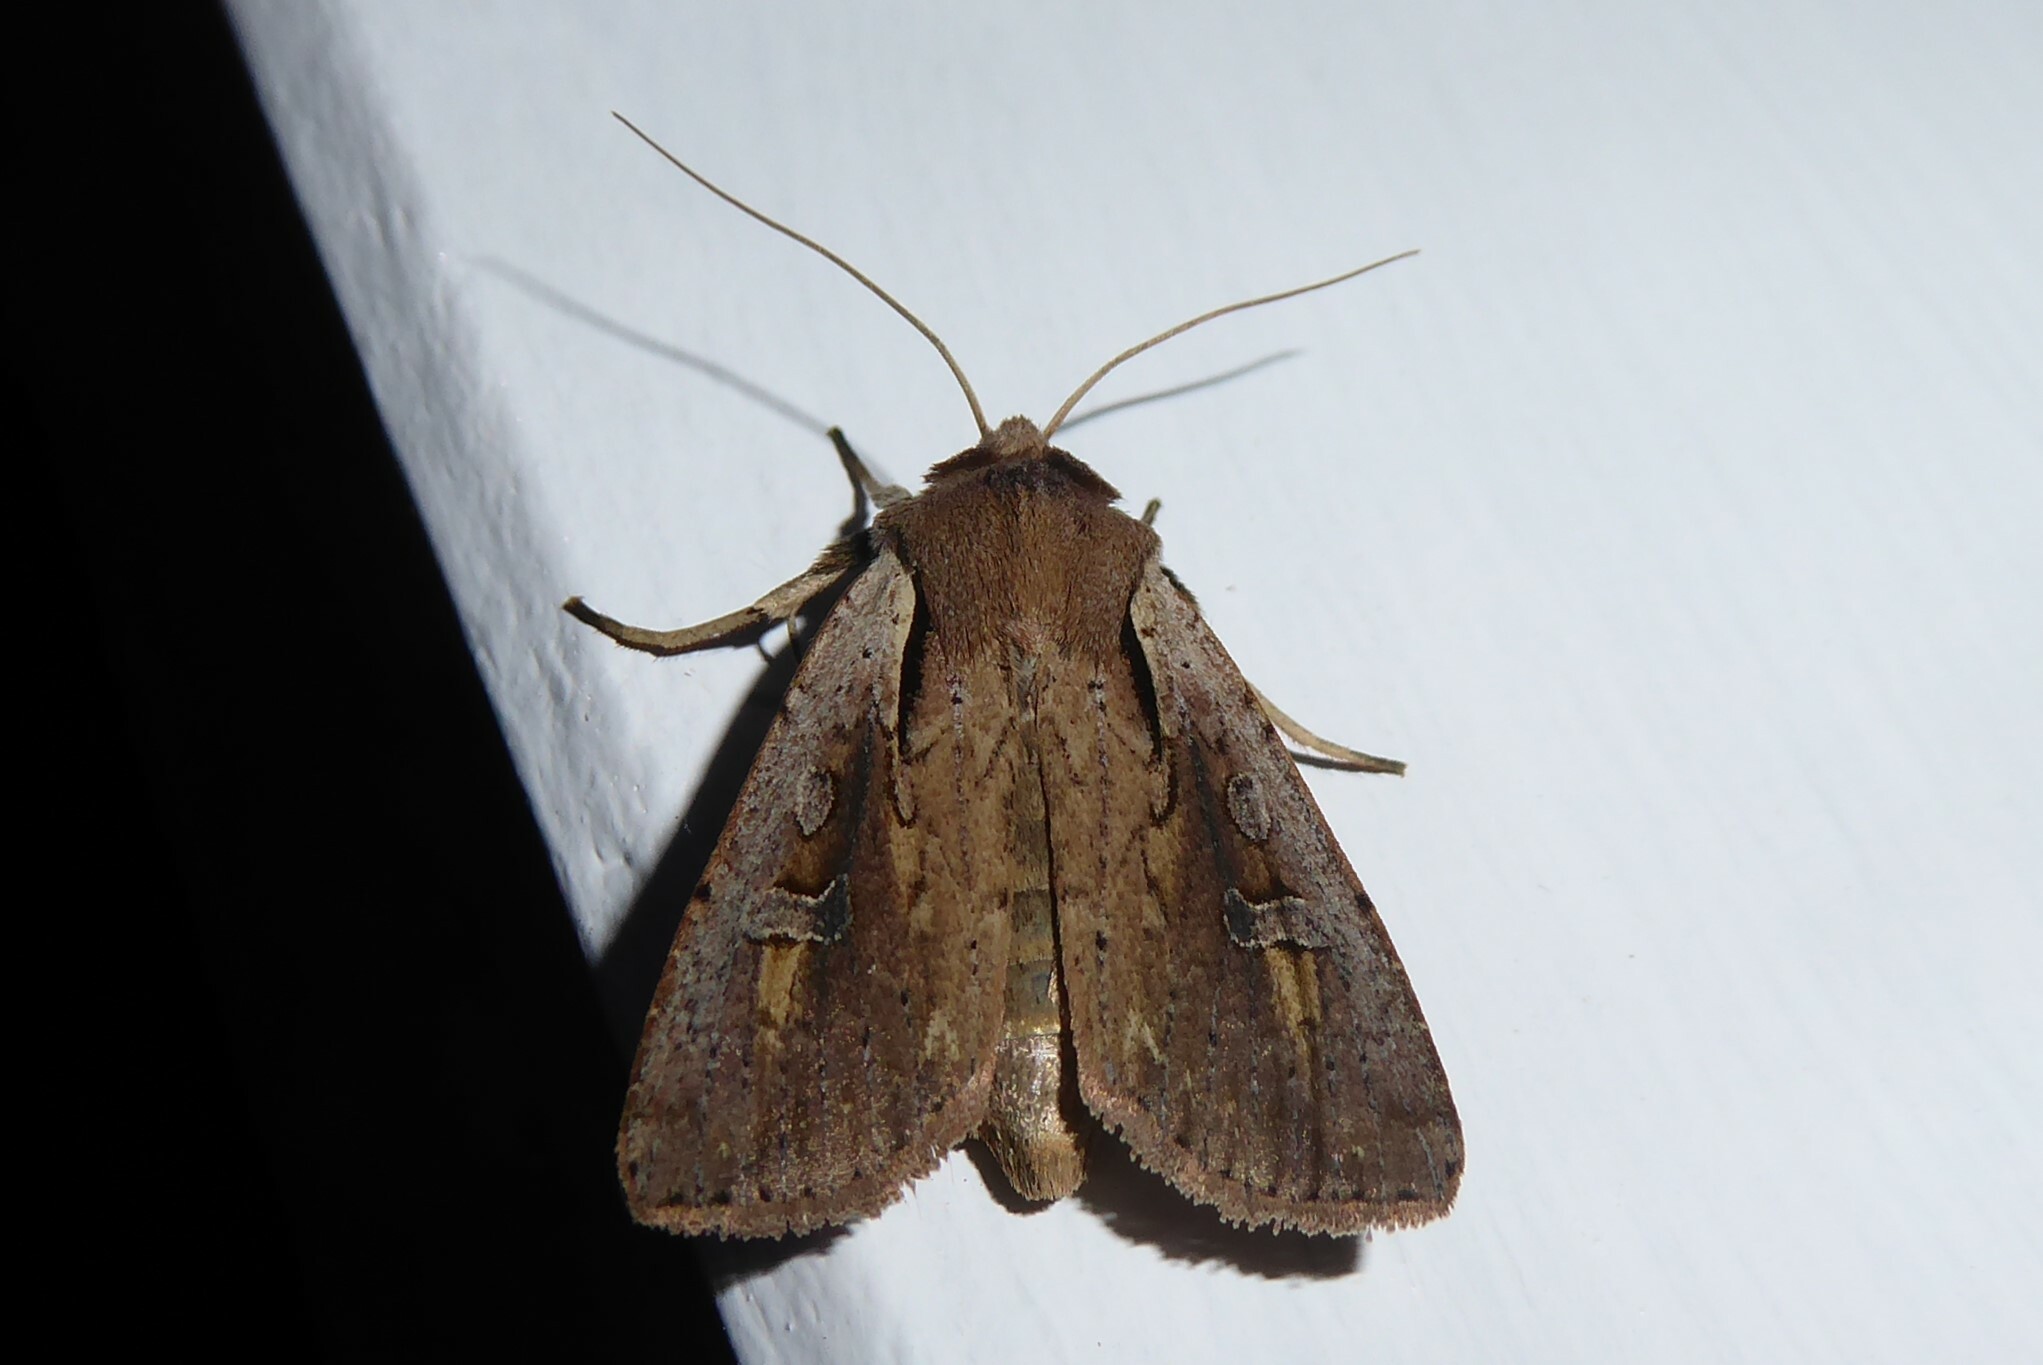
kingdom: Animalia
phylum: Arthropoda
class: Insecta
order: Lepidoptera
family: Noctuidae
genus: Ichneutica
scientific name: Ichneutica atristriga
